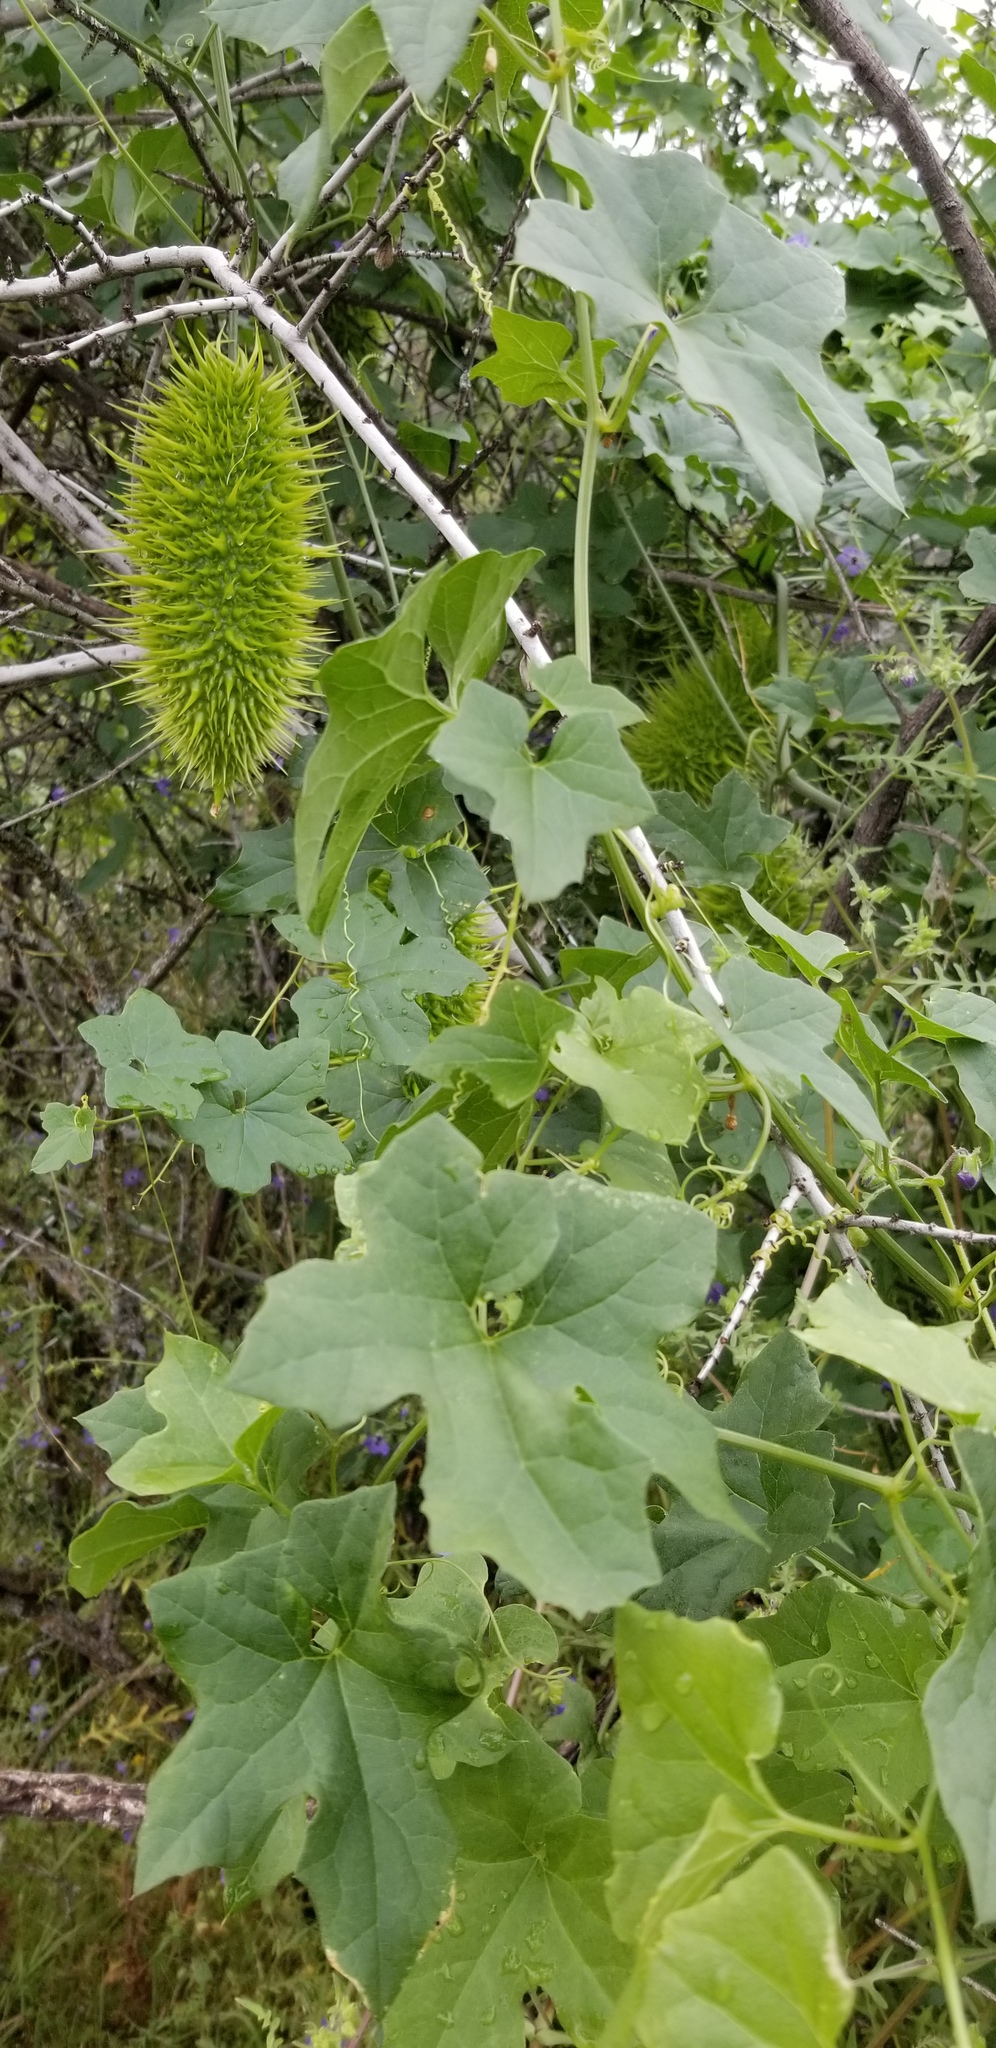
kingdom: Plantae
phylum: Tracheophyta
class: Magnoliopsida
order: Cucurbitales
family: Cucurbitaceae
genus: Marah
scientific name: Marah horrida
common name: Sierra manroot
